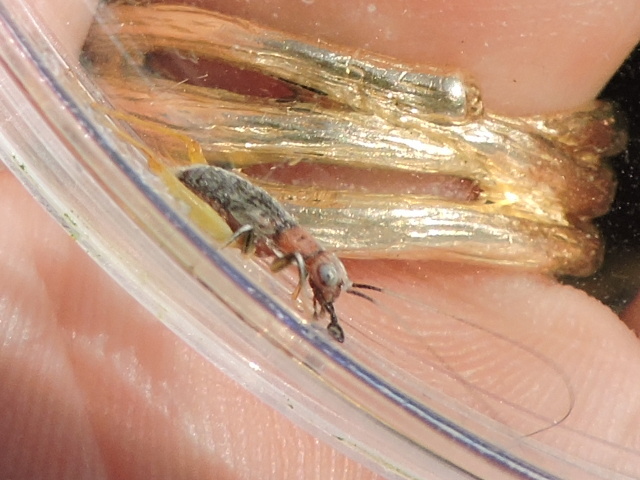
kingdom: Animalia
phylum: Arthropoda
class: Insecta
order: Orthoptera
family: Trigonidiidae
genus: Phyllopalpus
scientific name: Phyllopalpus pulchellus
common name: Handsome trig
